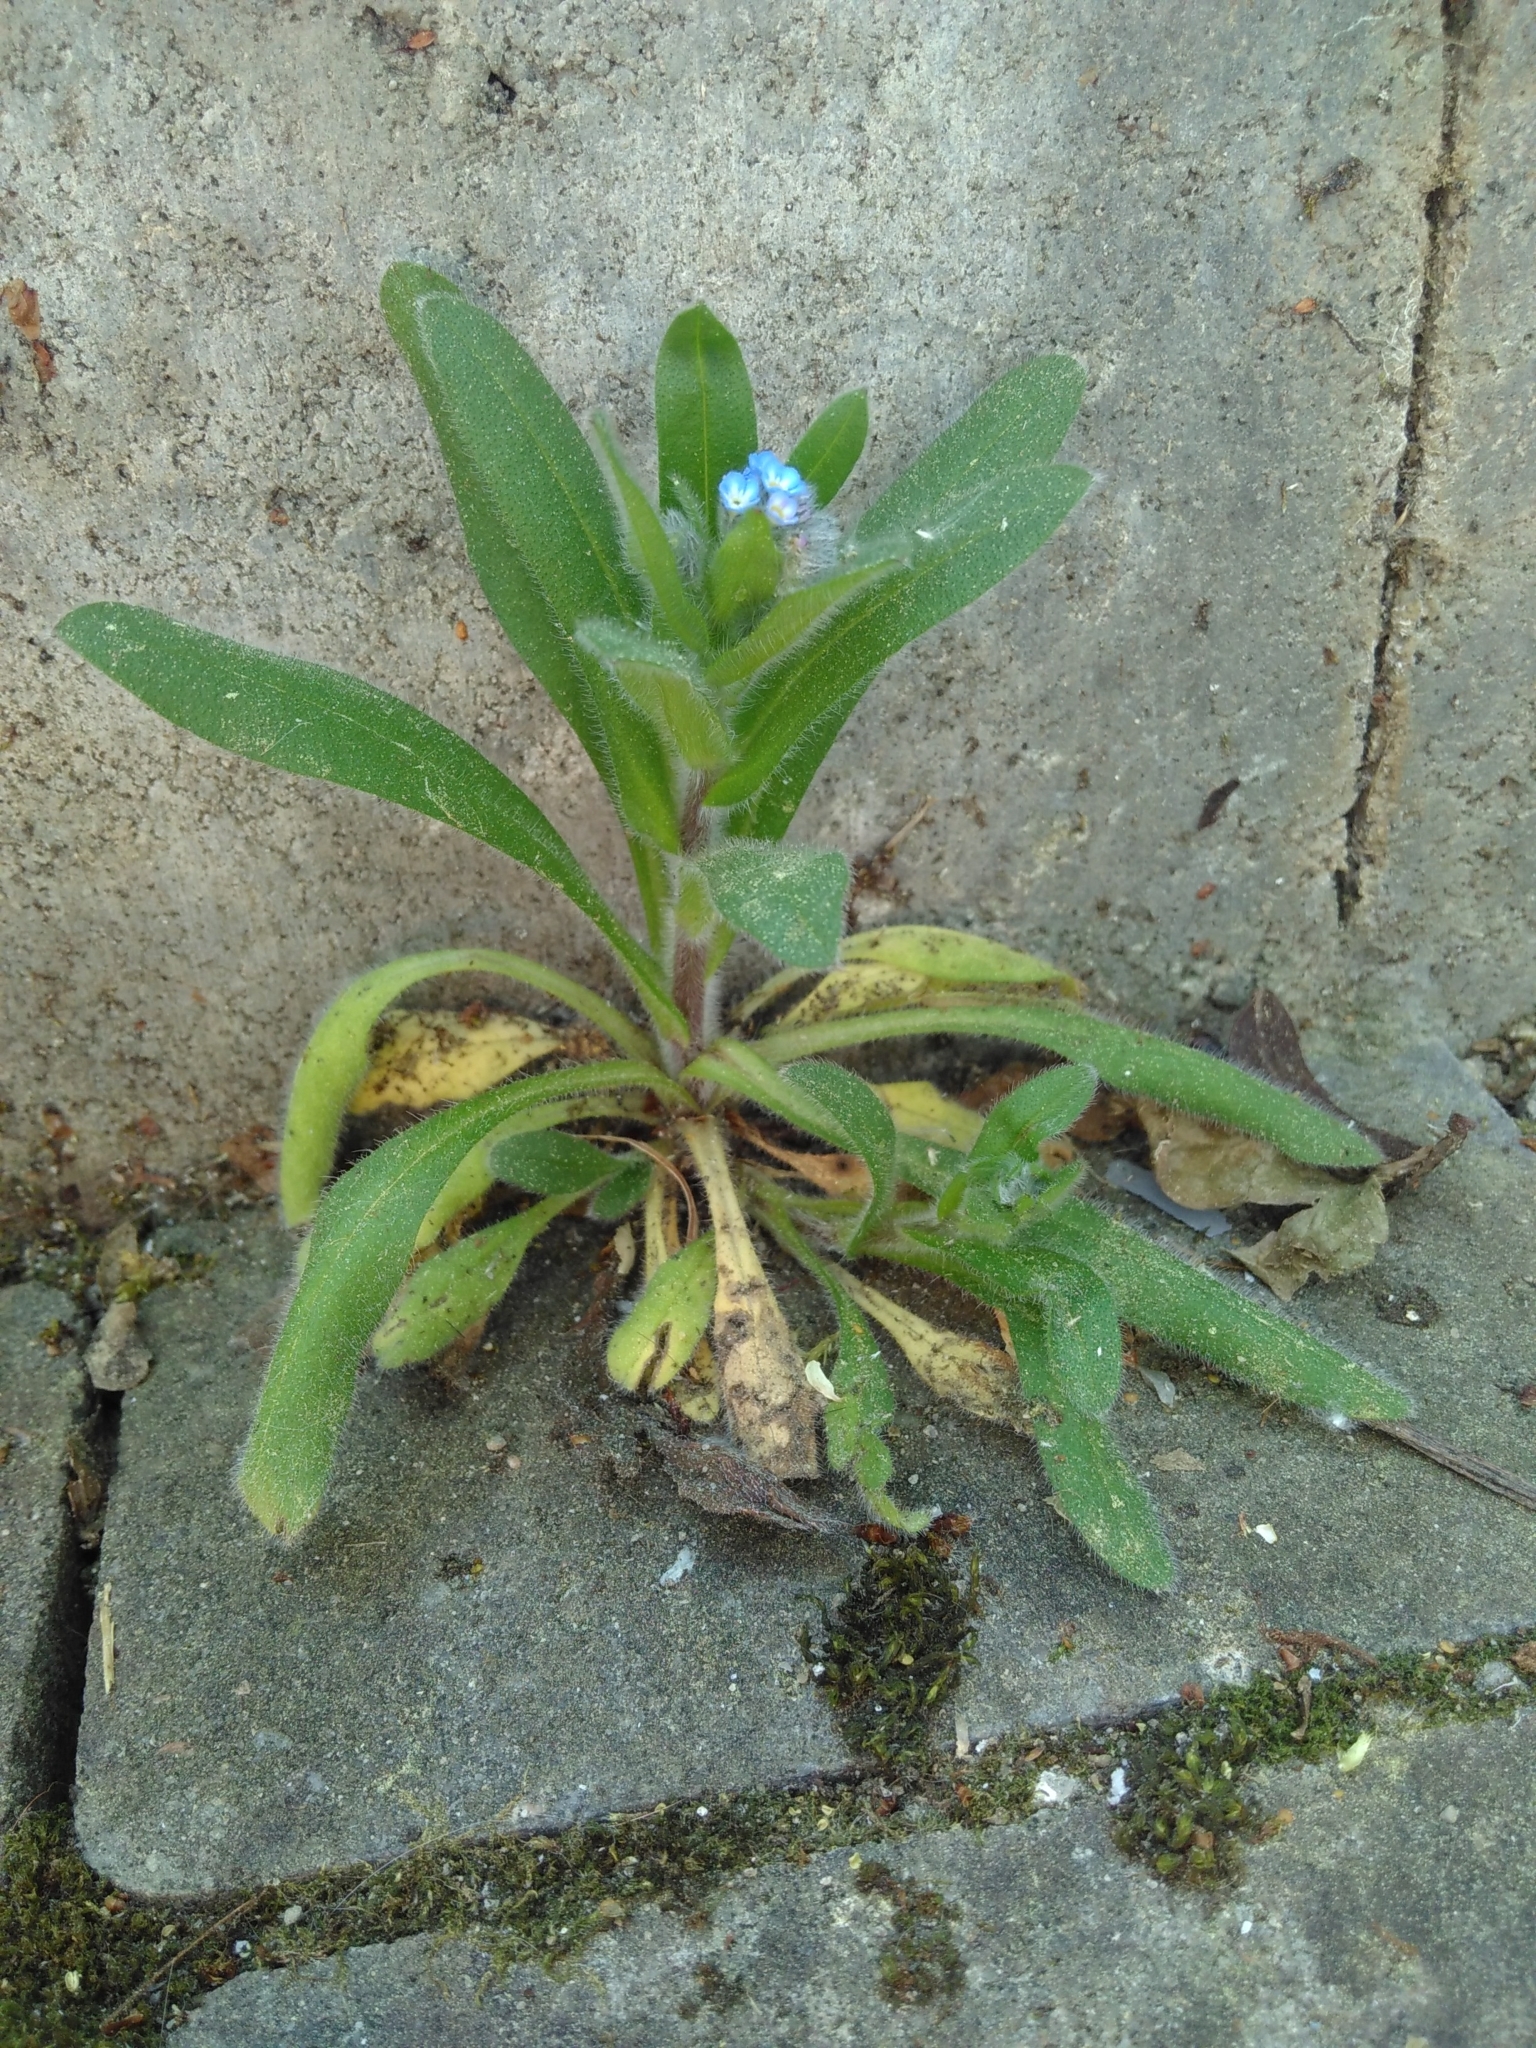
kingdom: Plantae
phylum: Tracheophyta
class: Magnoliopsida
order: Boraginales
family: Boraginaceae
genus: Myosotis
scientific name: Myosotis arvensis
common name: Field forget-me-not
